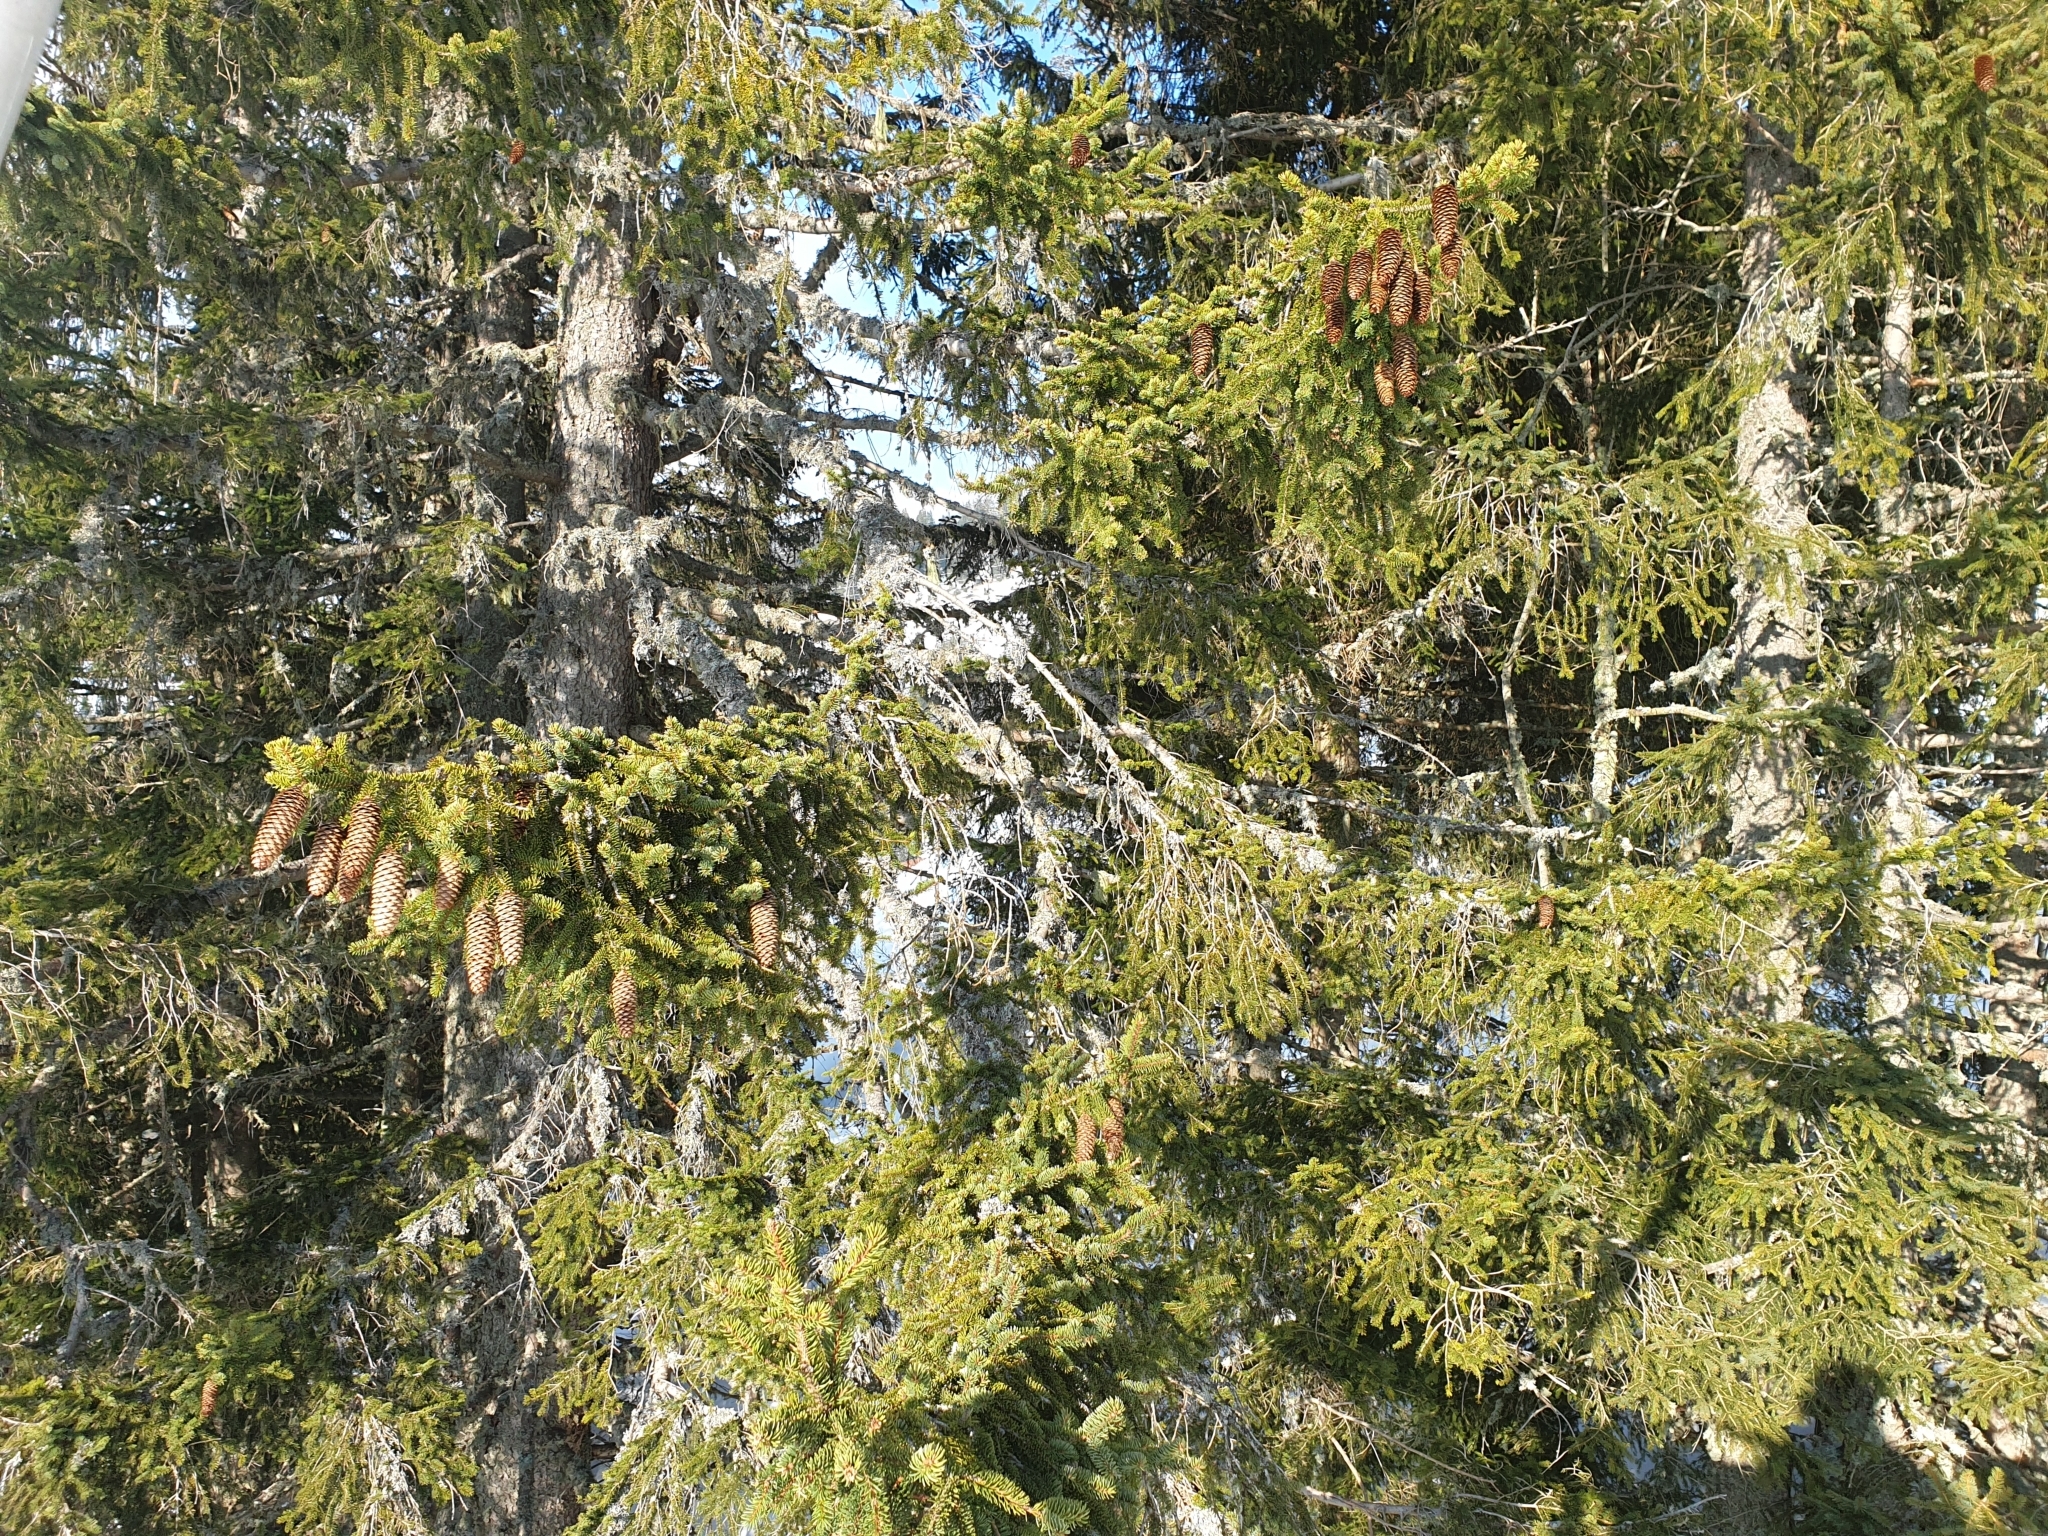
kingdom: Plantae
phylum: Tracheophyta
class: Pinopsida
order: Pinales
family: Pinaceae
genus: Picea
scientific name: Picea abies
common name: Norway spruce
